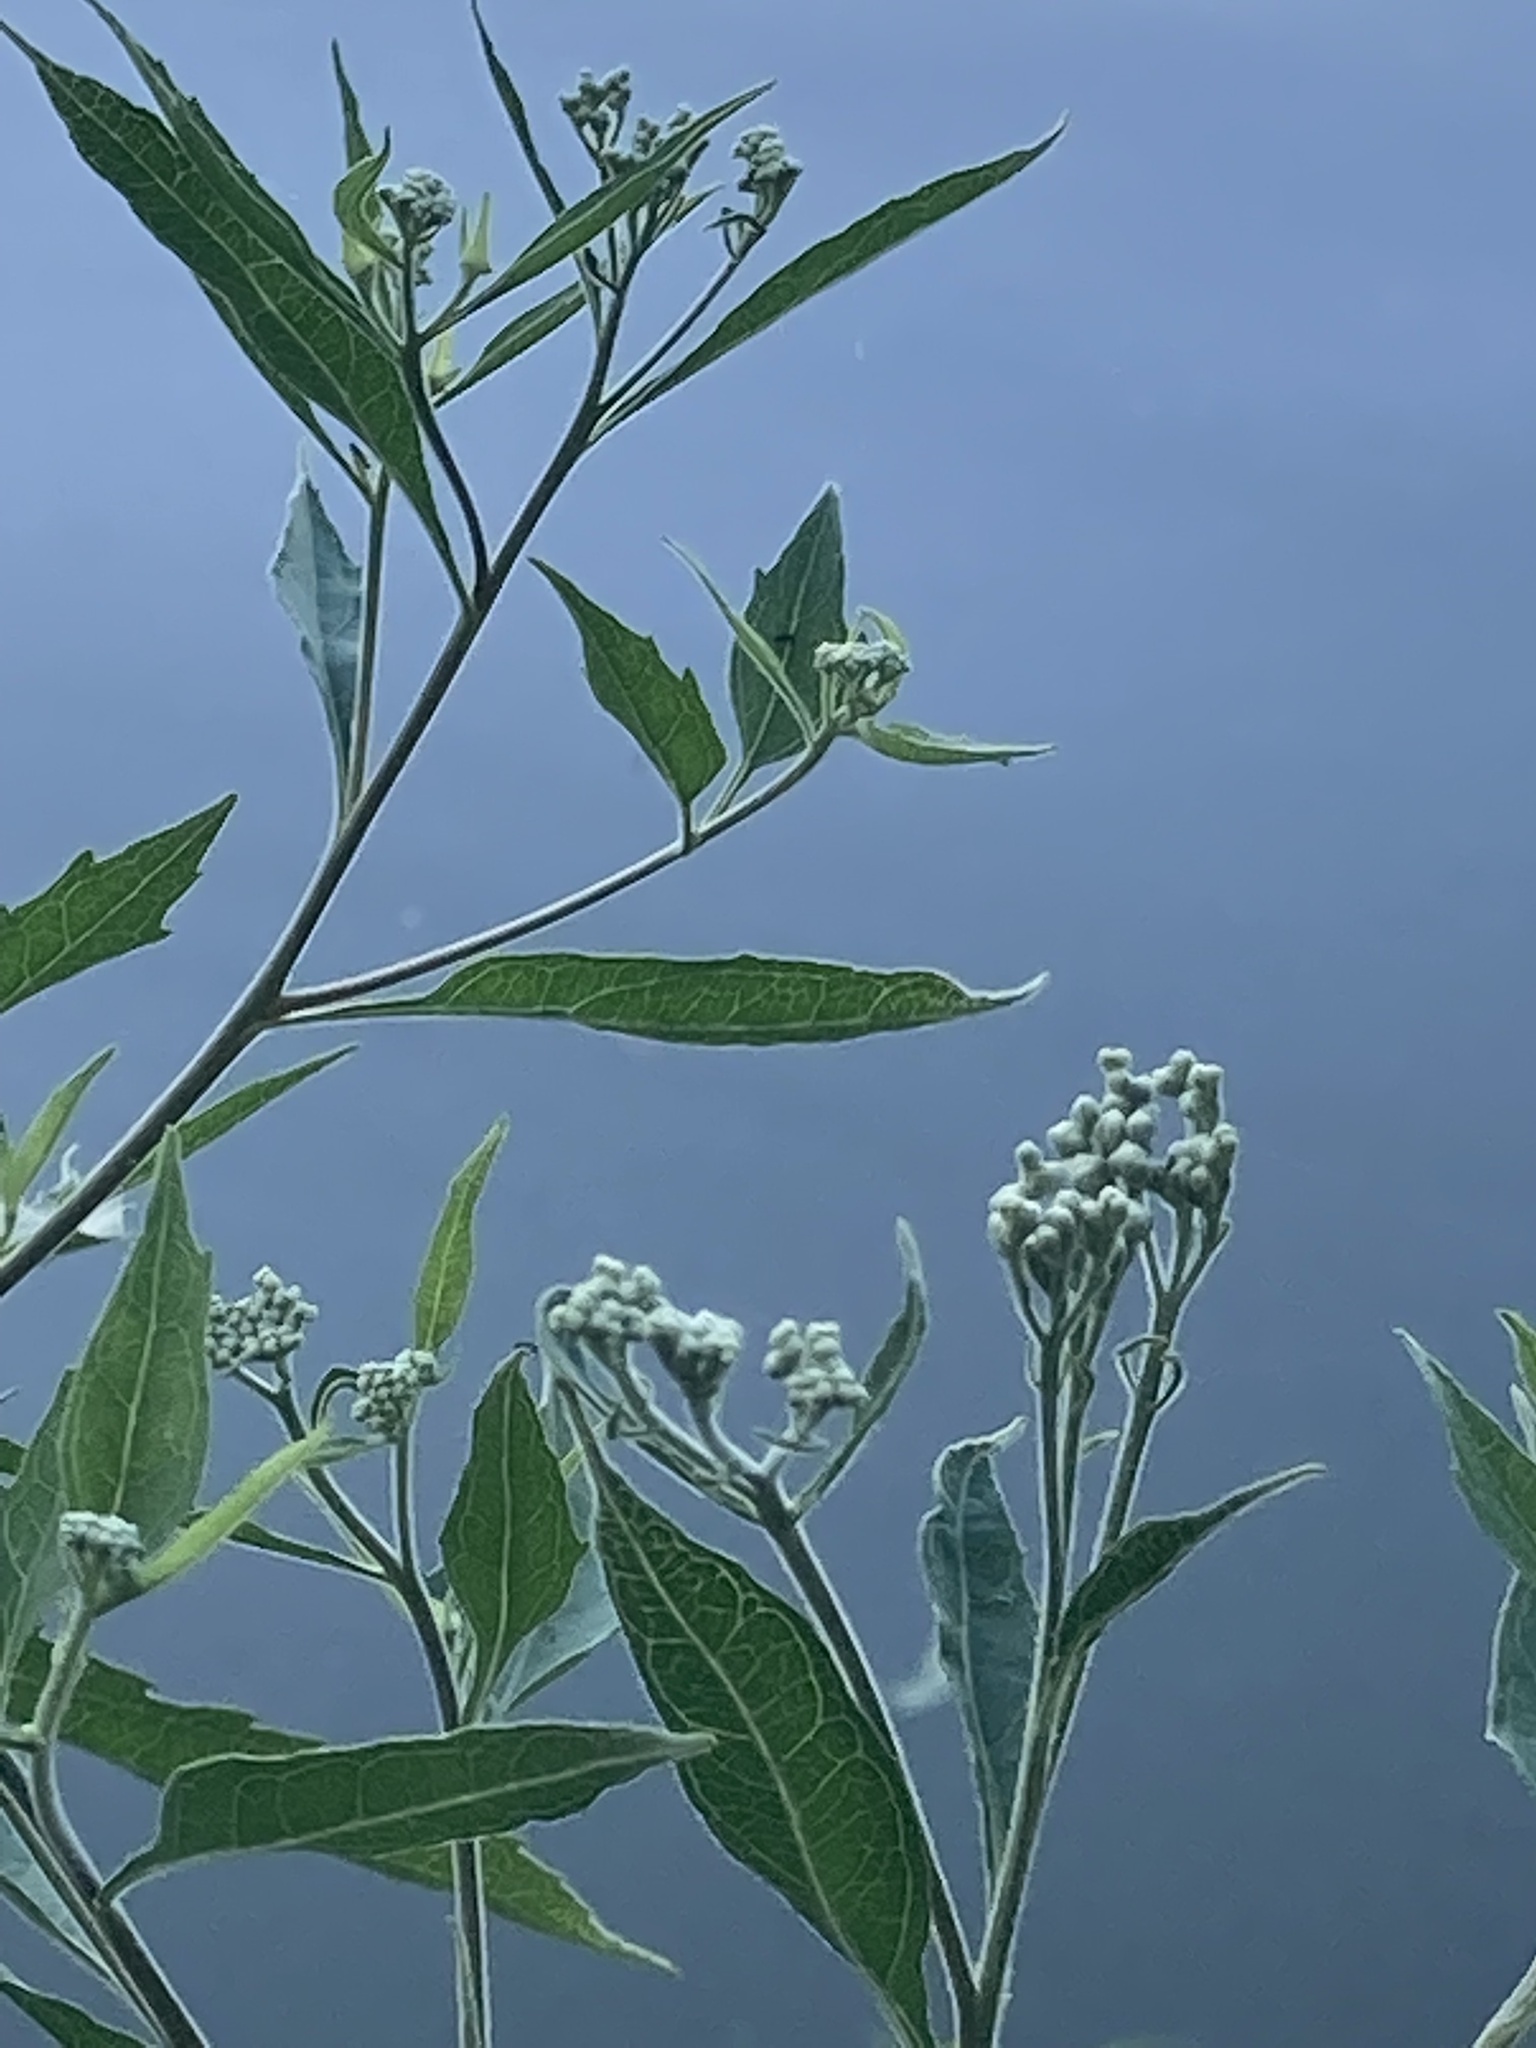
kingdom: Plantae
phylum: Tracheophyta
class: Magnoliopsida
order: Asterales
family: Asteraceae
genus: Eupatorium
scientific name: Eupatorium serotinum
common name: Late boneset
